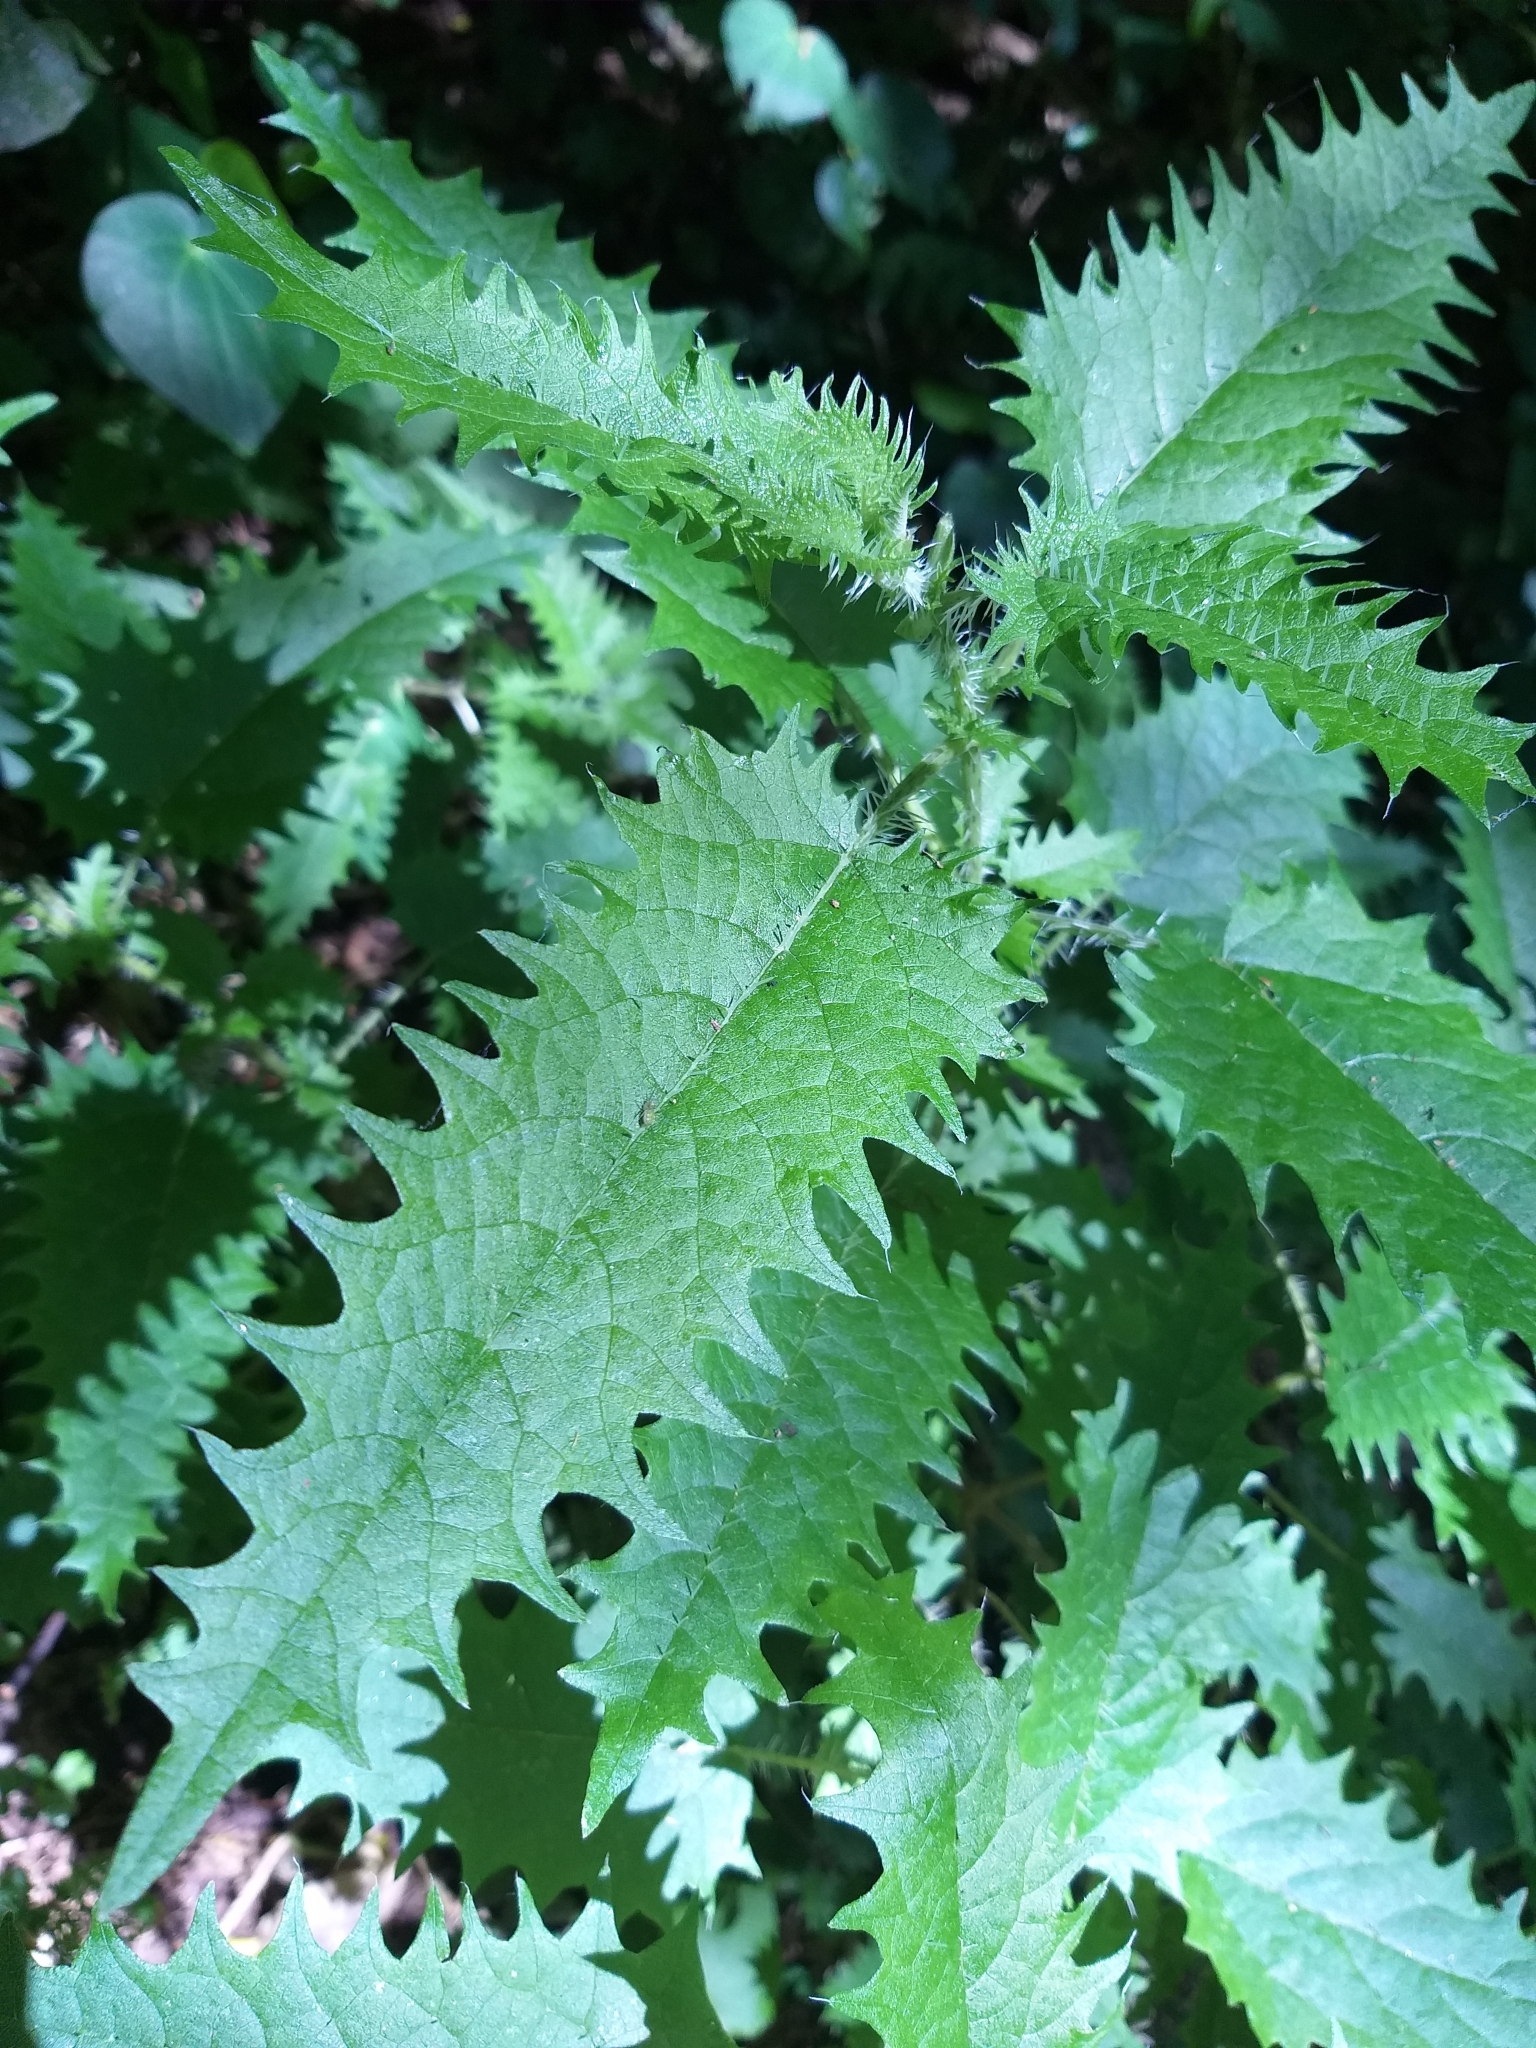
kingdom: Plantae
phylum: Tracheophyta
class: Magnoliopsida
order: Rosales
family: Urticaceae
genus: Urtica
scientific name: Urtica ferox
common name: Tree nettle
